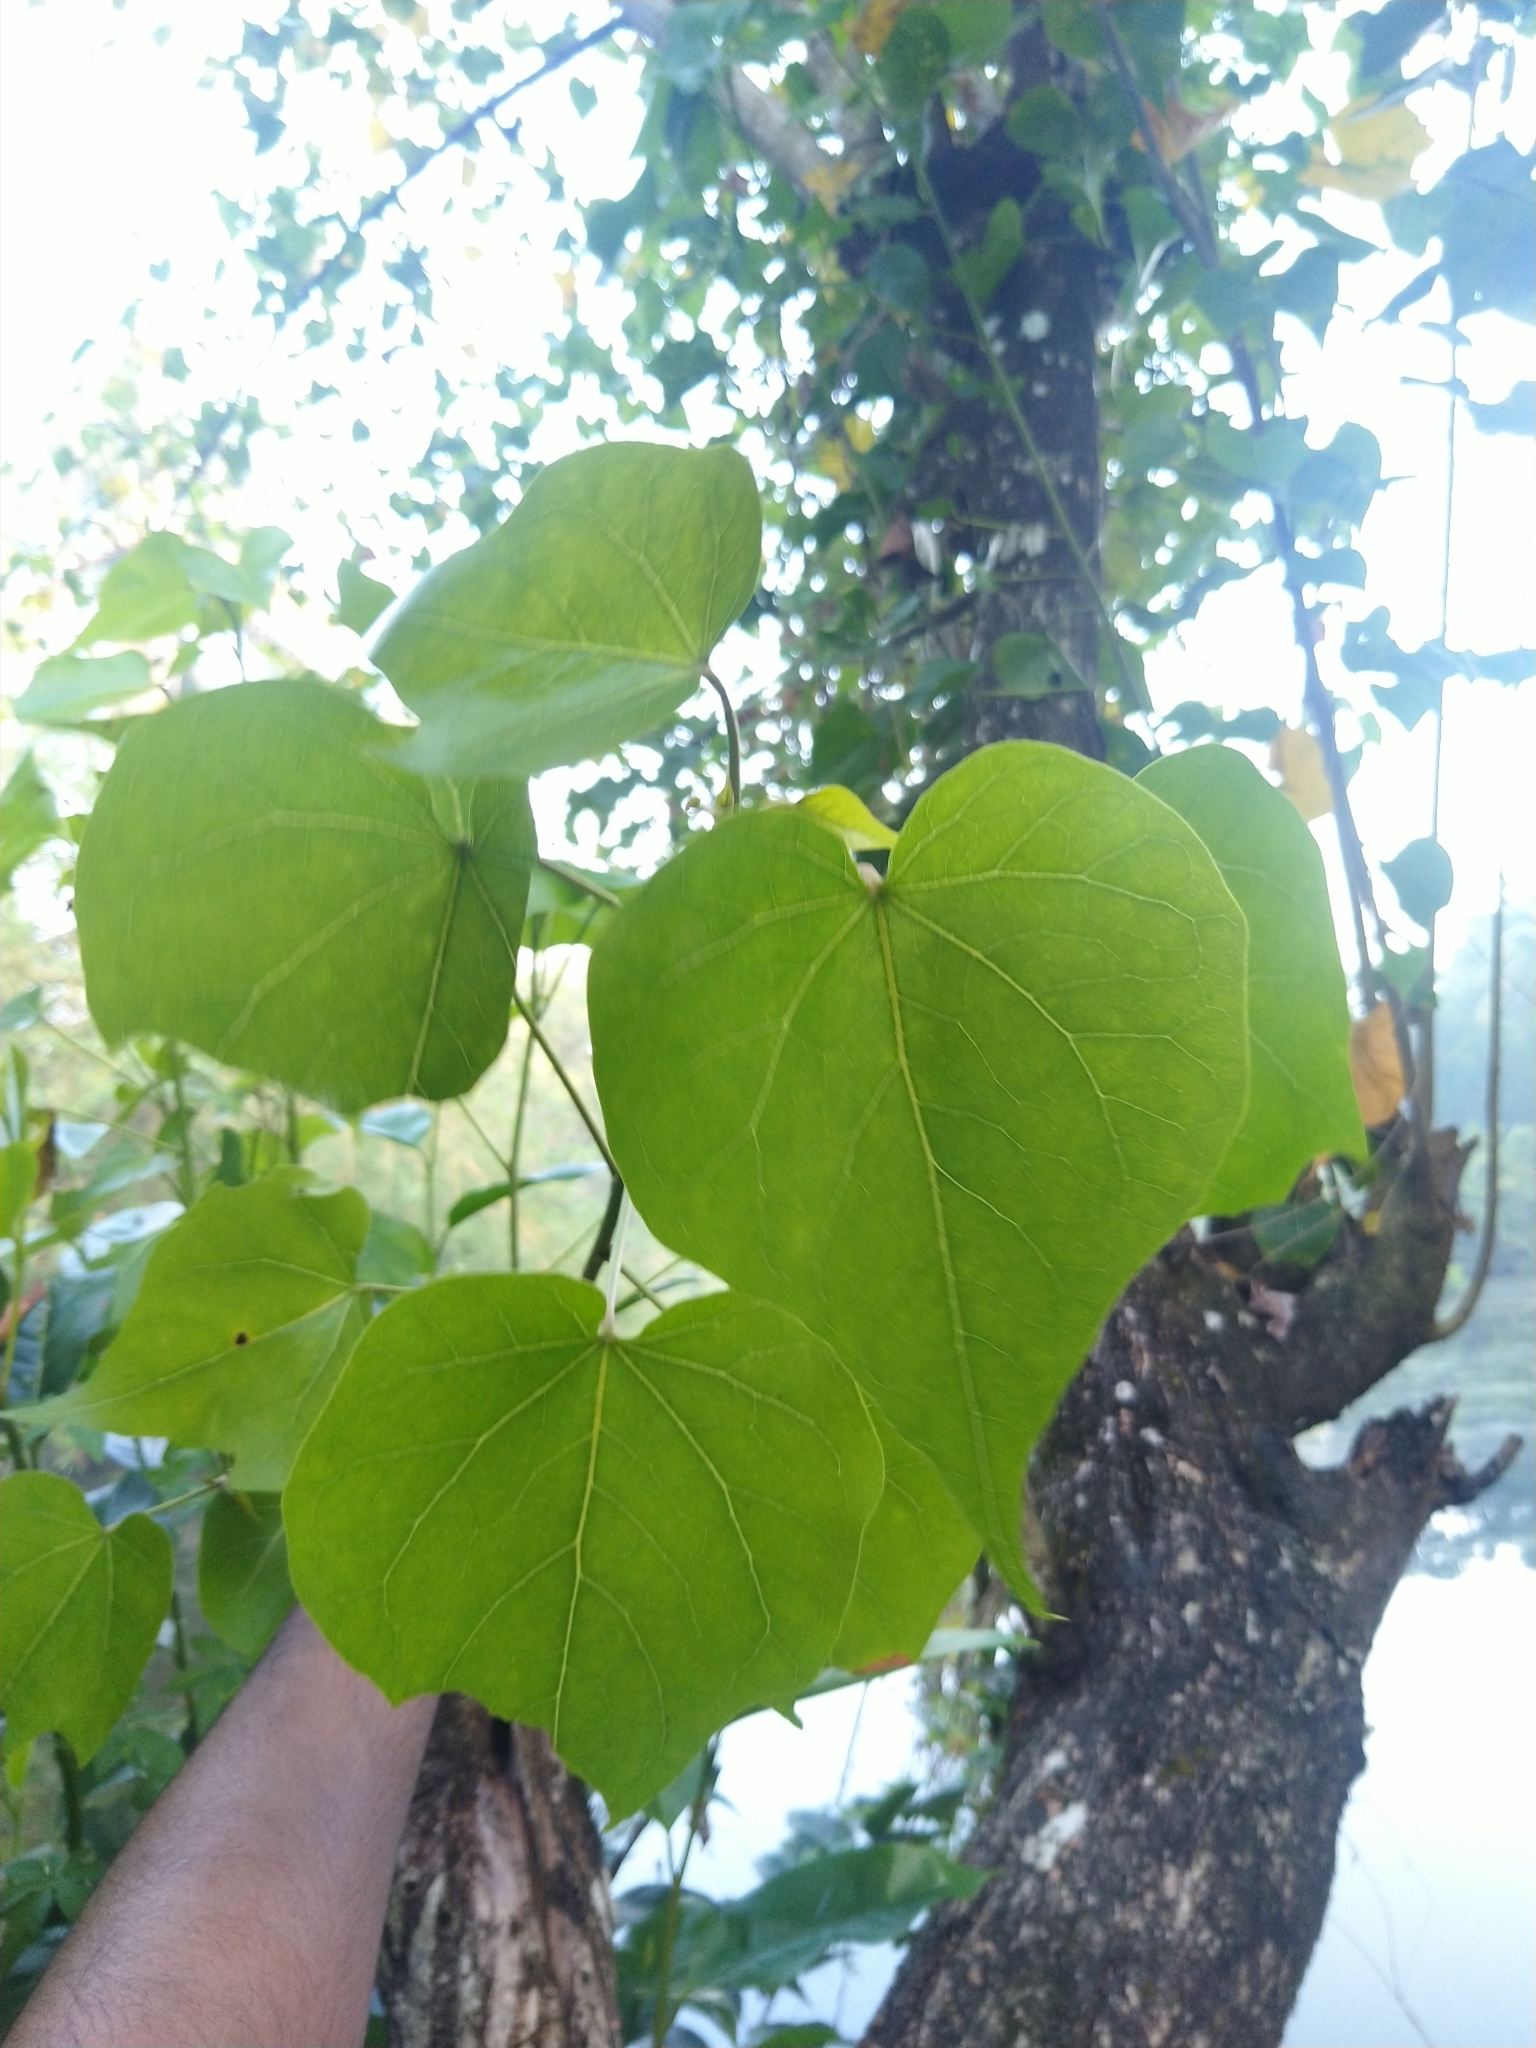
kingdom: Plantae
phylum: Tracheophyta
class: Magnoliopsida
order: Malvales
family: Malvaceae
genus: Thespesia
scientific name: Thespesia populnea
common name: Seaside mahoe
